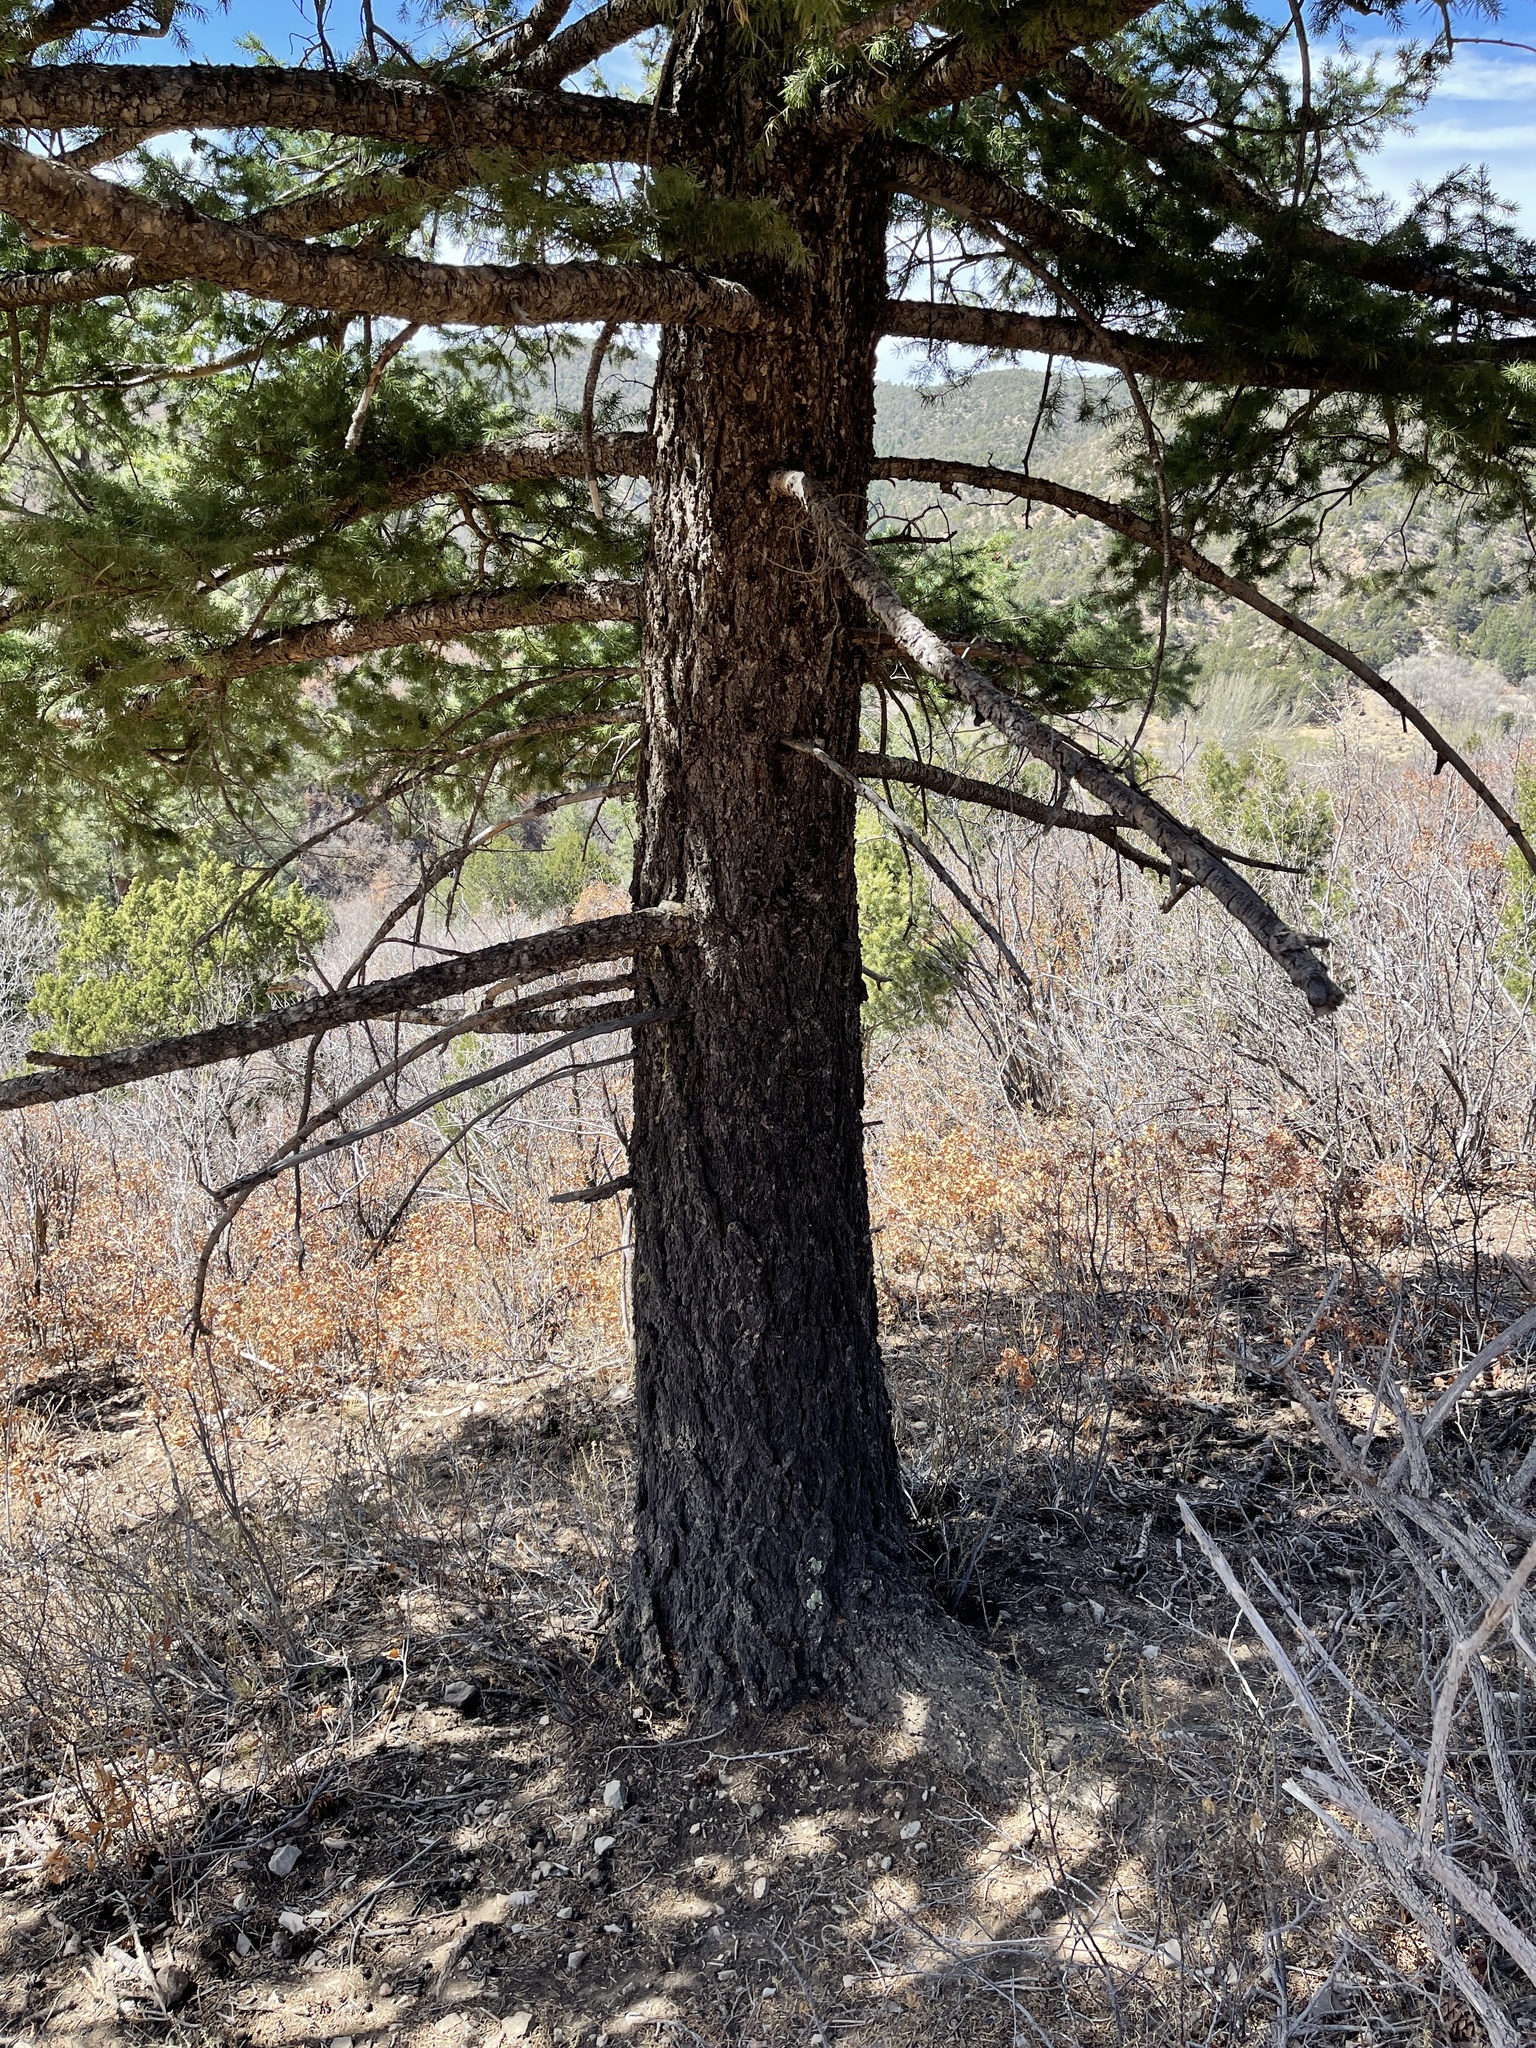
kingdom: Plantae
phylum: Tracheophyta
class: Pinopsida
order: Pinales
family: Pinaceae
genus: Pseudotsuga
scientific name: Pseudotsuga menziesii
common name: Douglas fir
